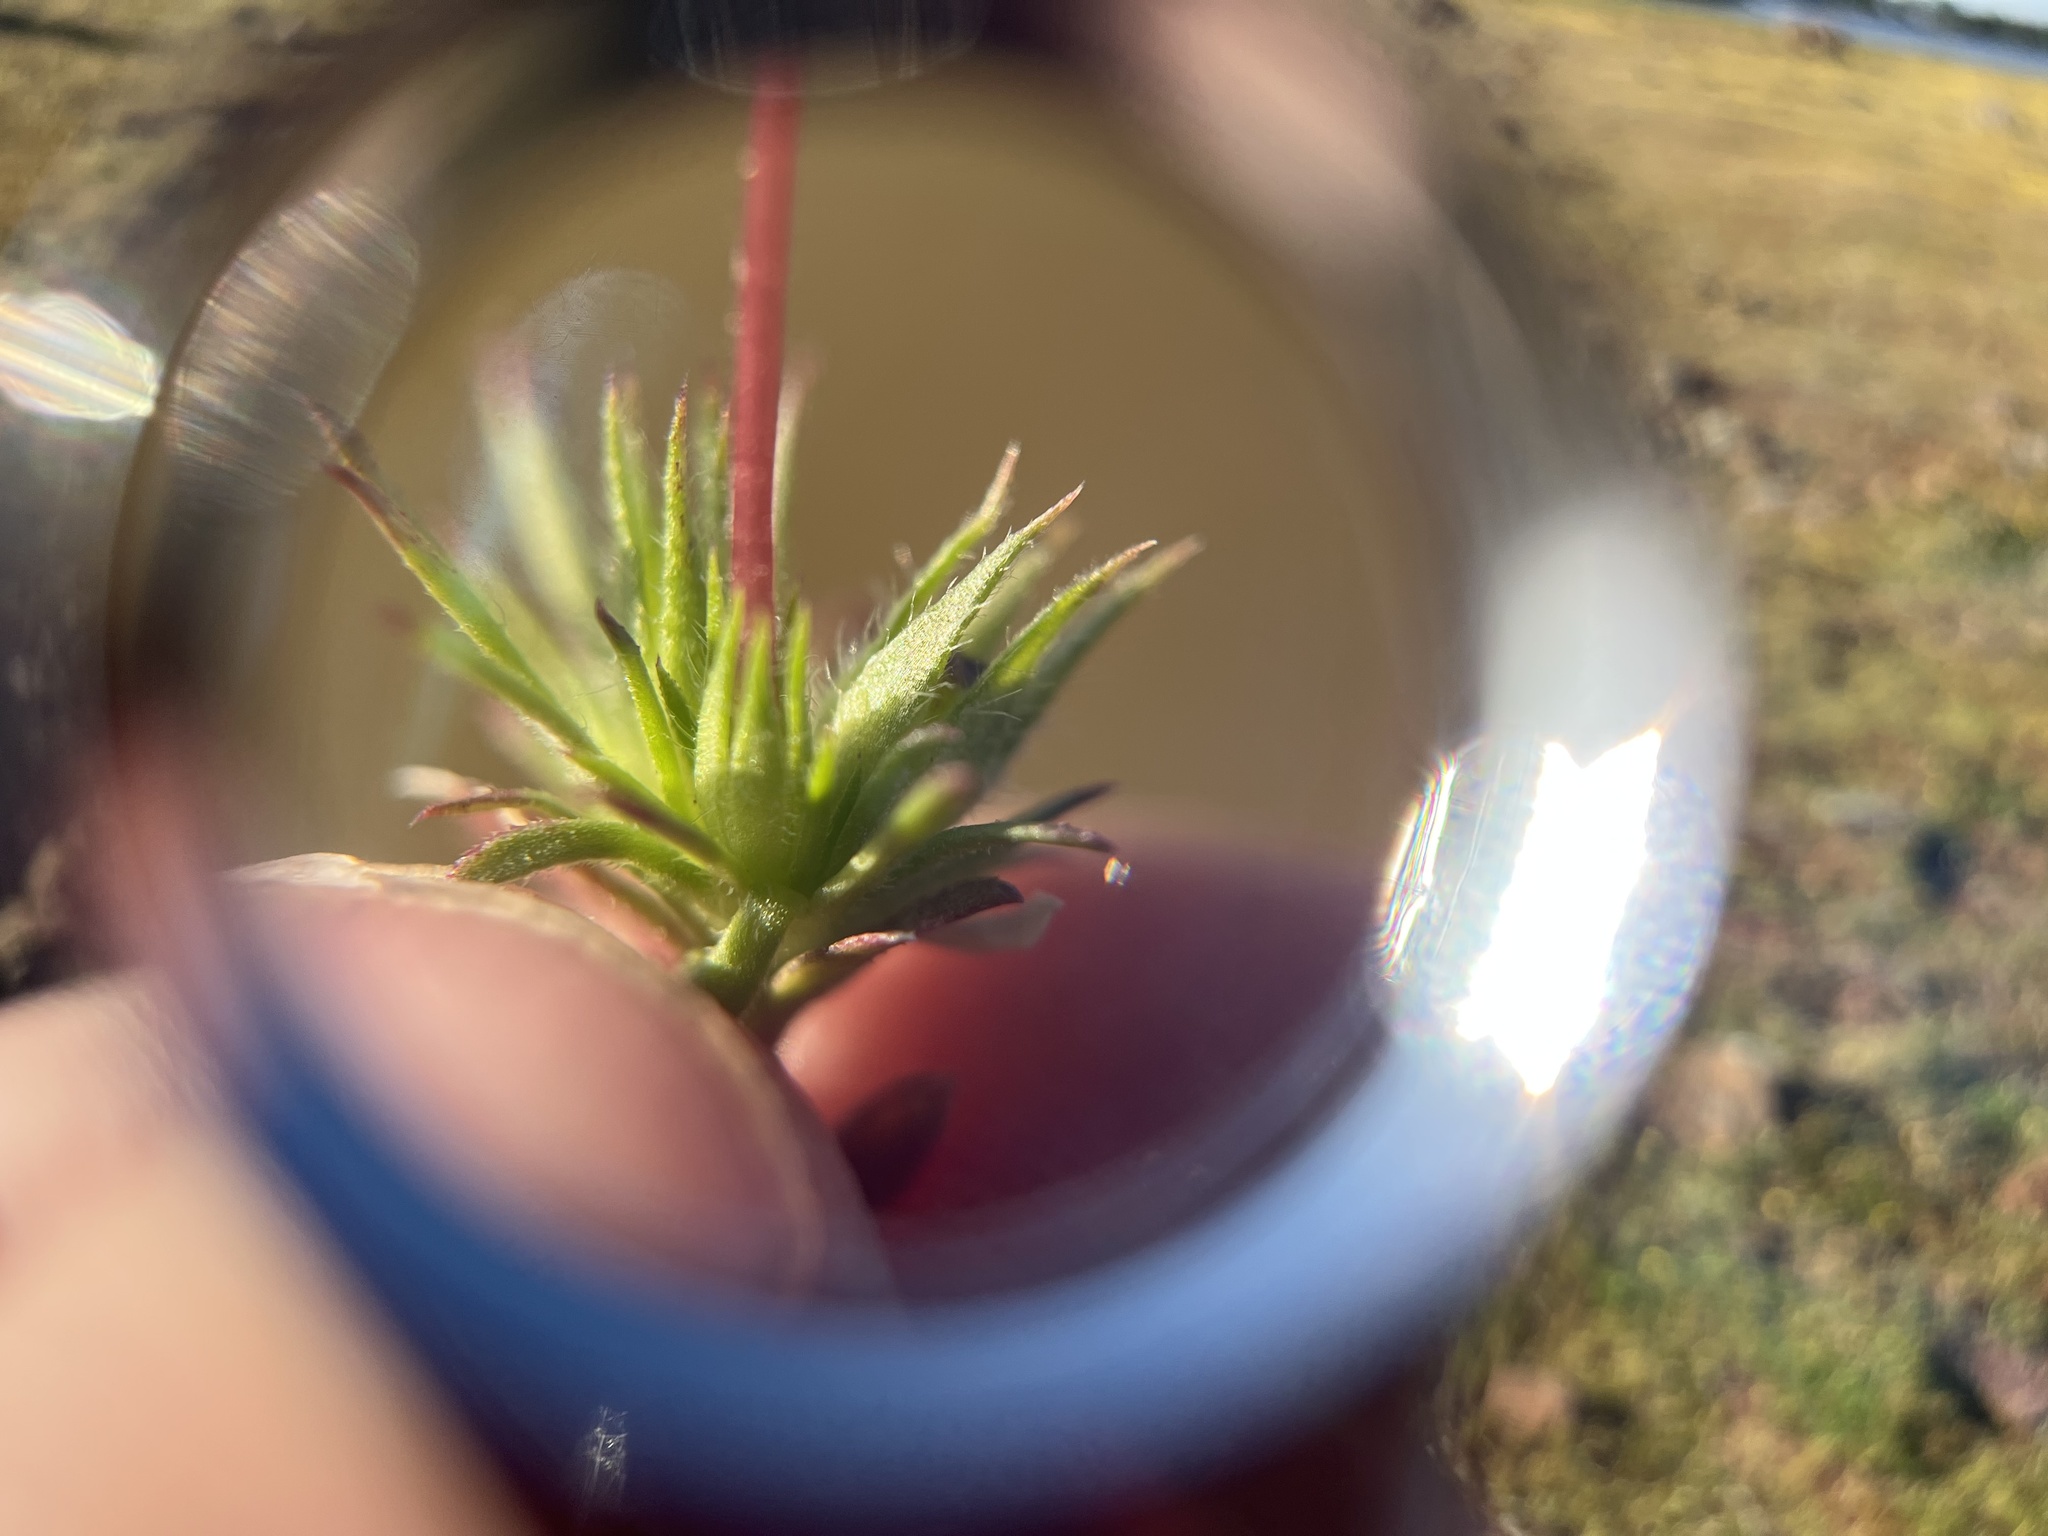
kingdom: Plantae
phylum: Tracheophyta
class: Magnoliopsida
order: Ericales
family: Polemoniaceae
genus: Leptosiphon
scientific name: Leptosiphon bicolor
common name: True babystars
